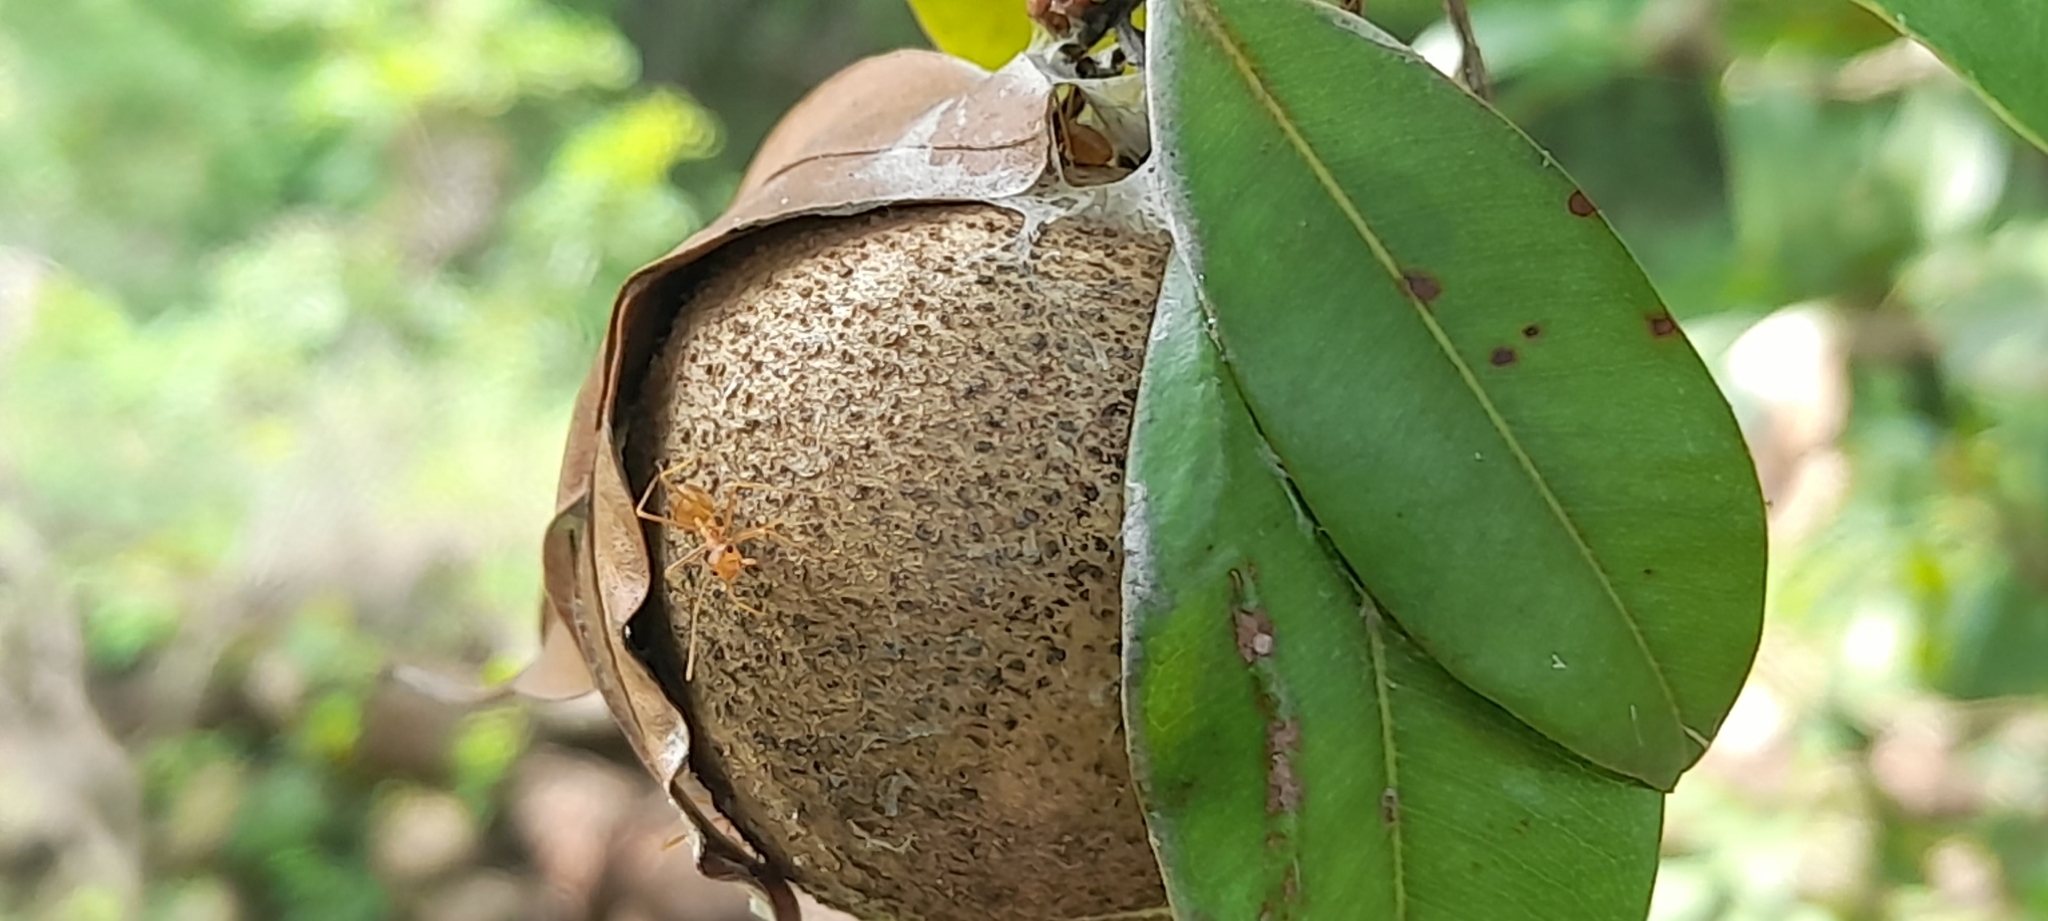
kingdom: Animalia
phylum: Arthropoda
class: Insecta
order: Hymenoptera
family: Formicidae
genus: Oecophylla
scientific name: Oecophylla smaragdina
